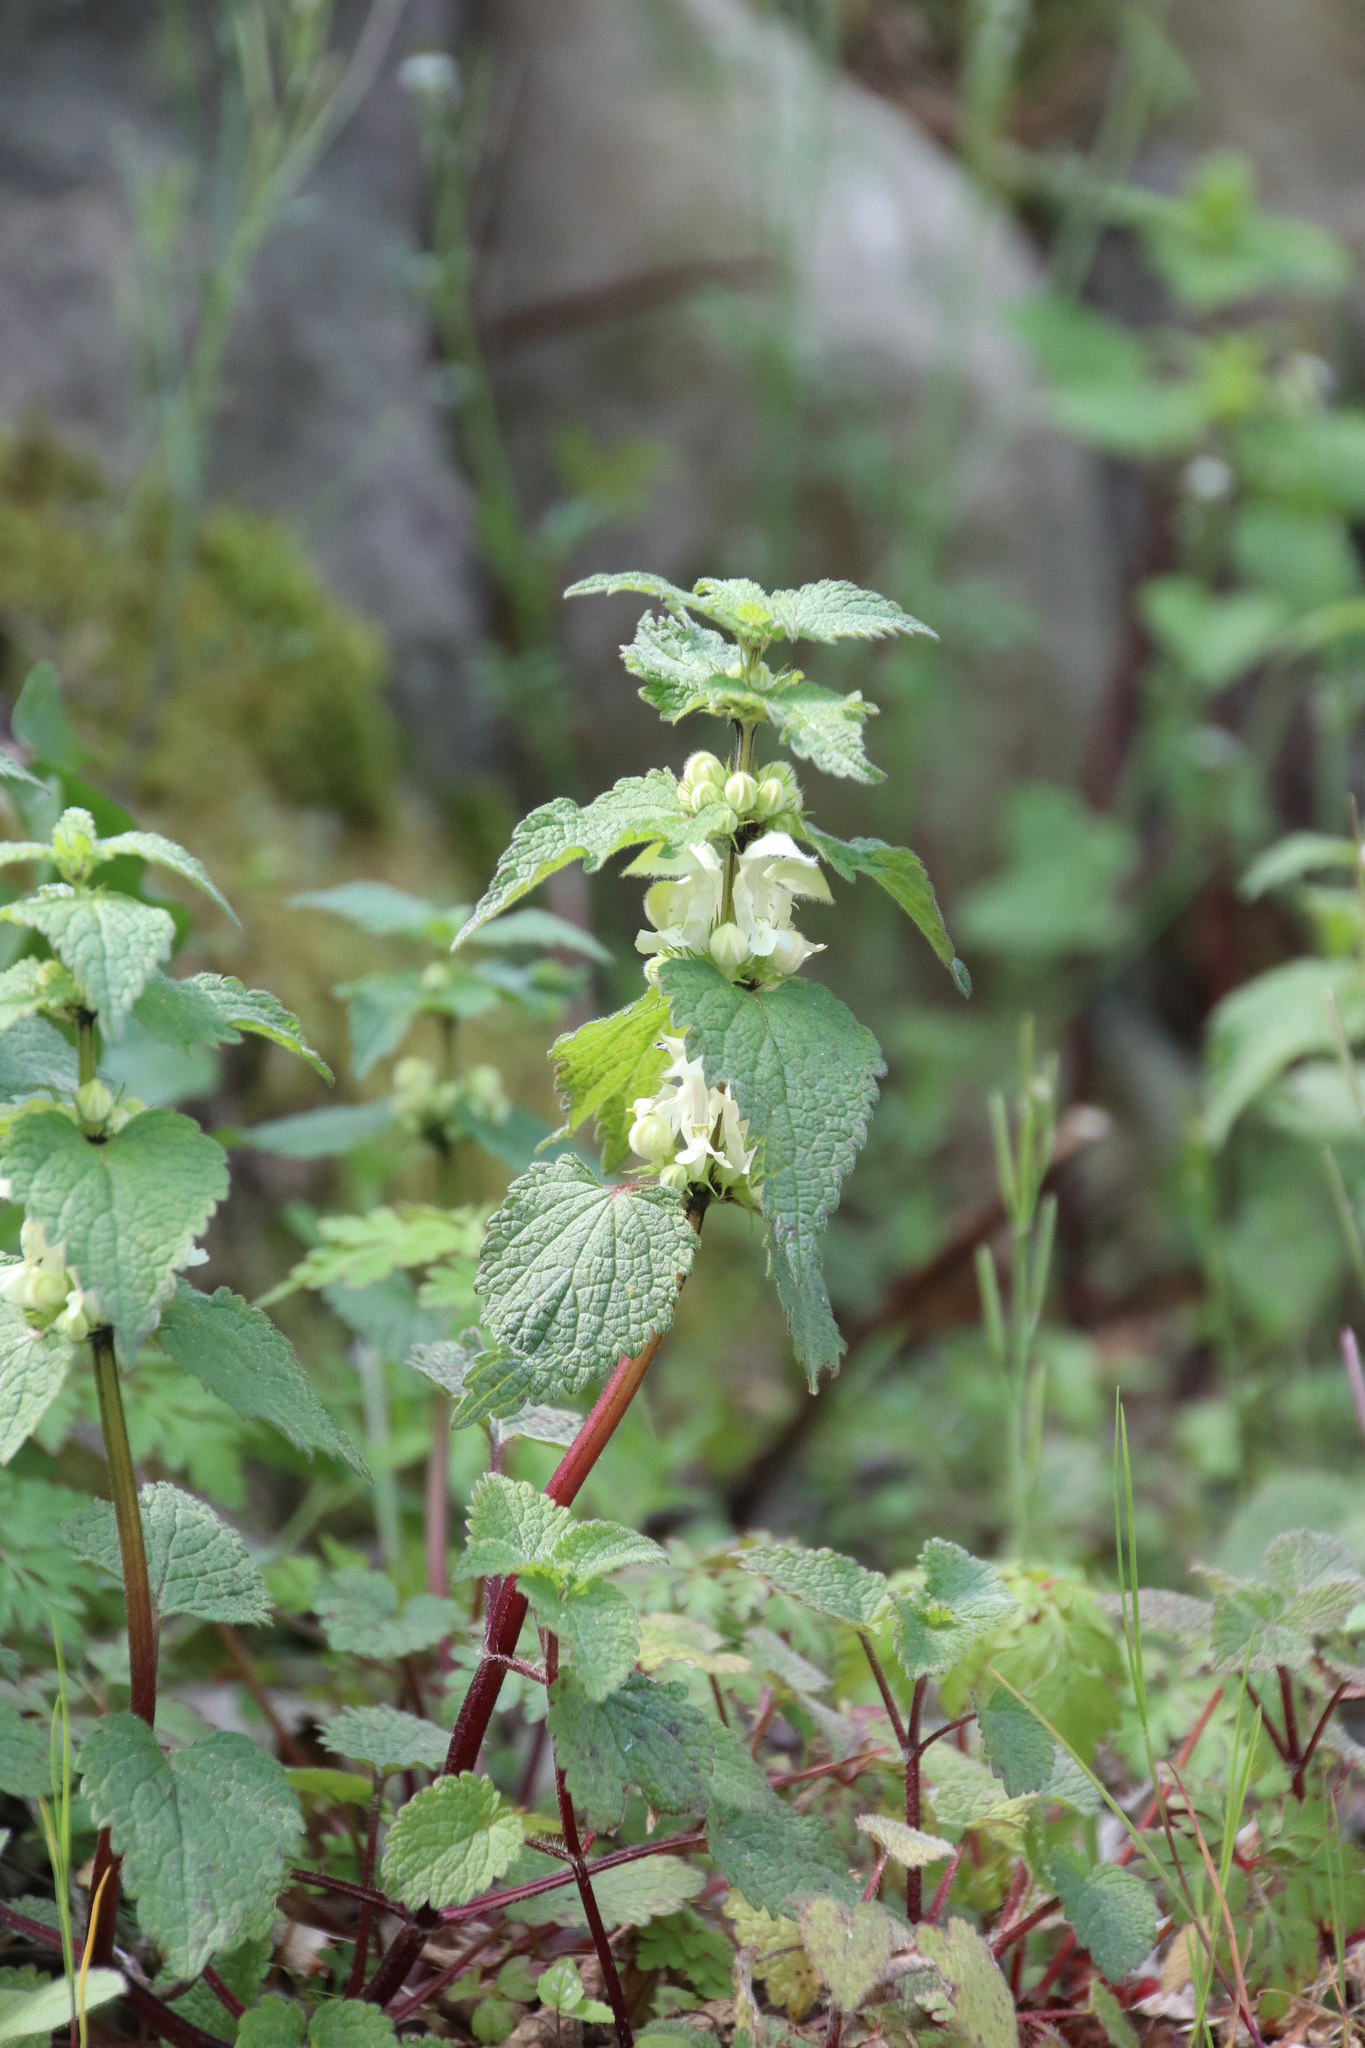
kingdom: Plantae
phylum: Tracheophyta
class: Magnoliopsida
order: Lamiales
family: Lamiaceae
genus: Lamium
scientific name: Lamium album
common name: White dead-nettle
